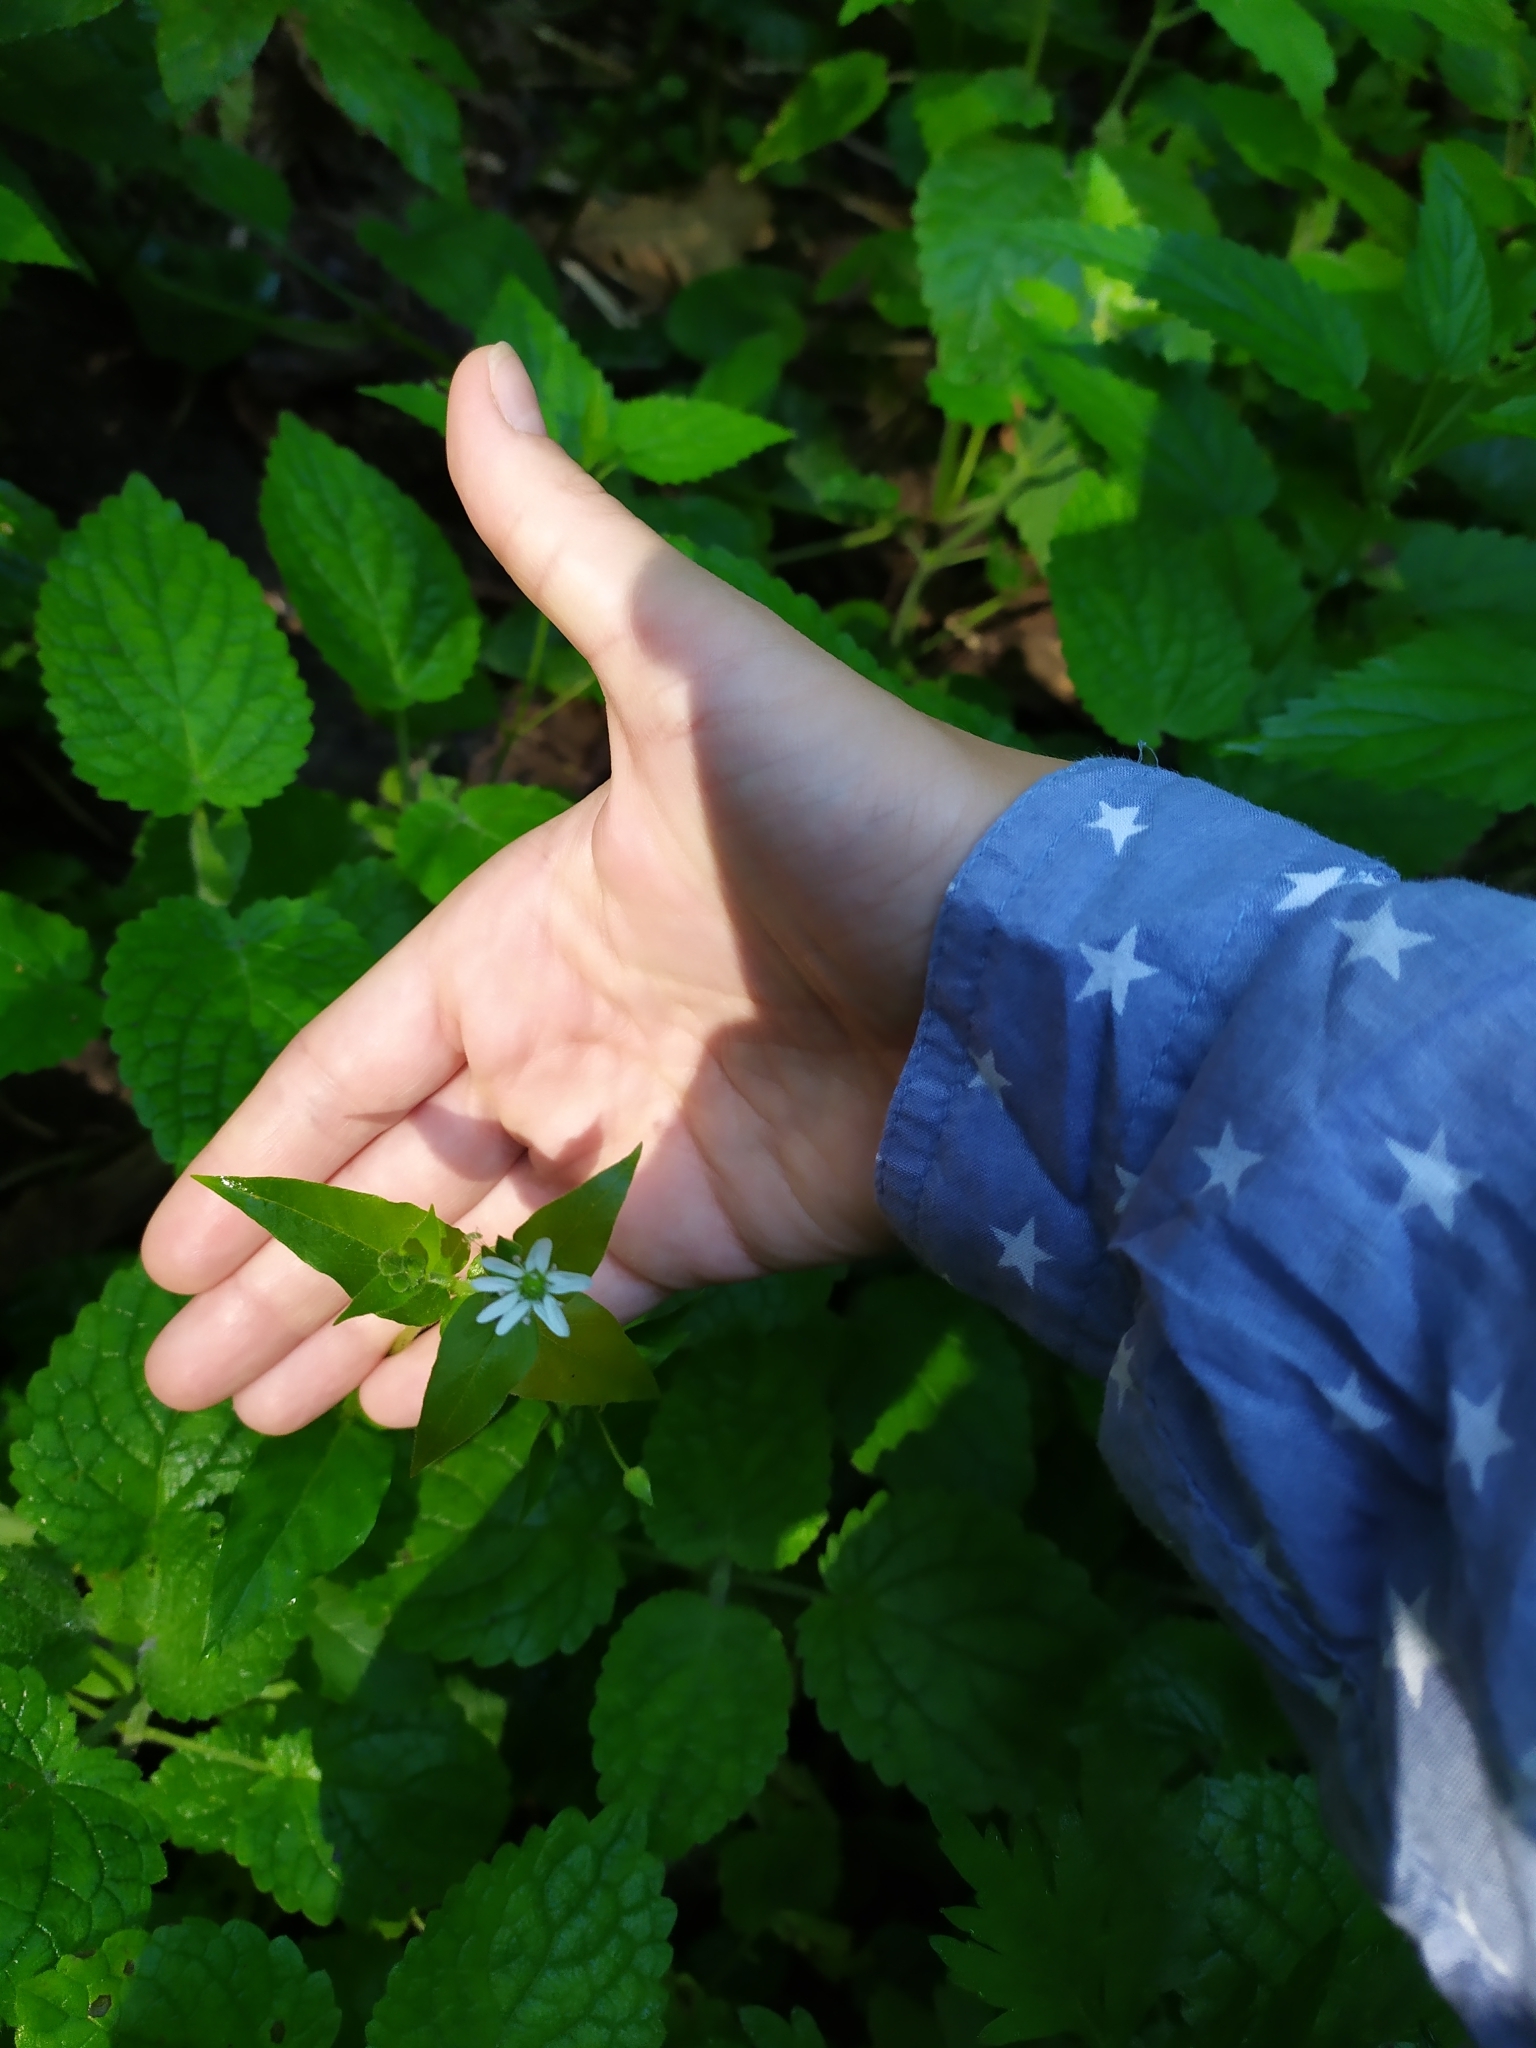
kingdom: Plantae
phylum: Tracheophyta
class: Magnoliopsida
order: Caryophyllales
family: Caryophyllaceae
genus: Stellaria
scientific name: Stellaria aquatica
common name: Water chickweed
